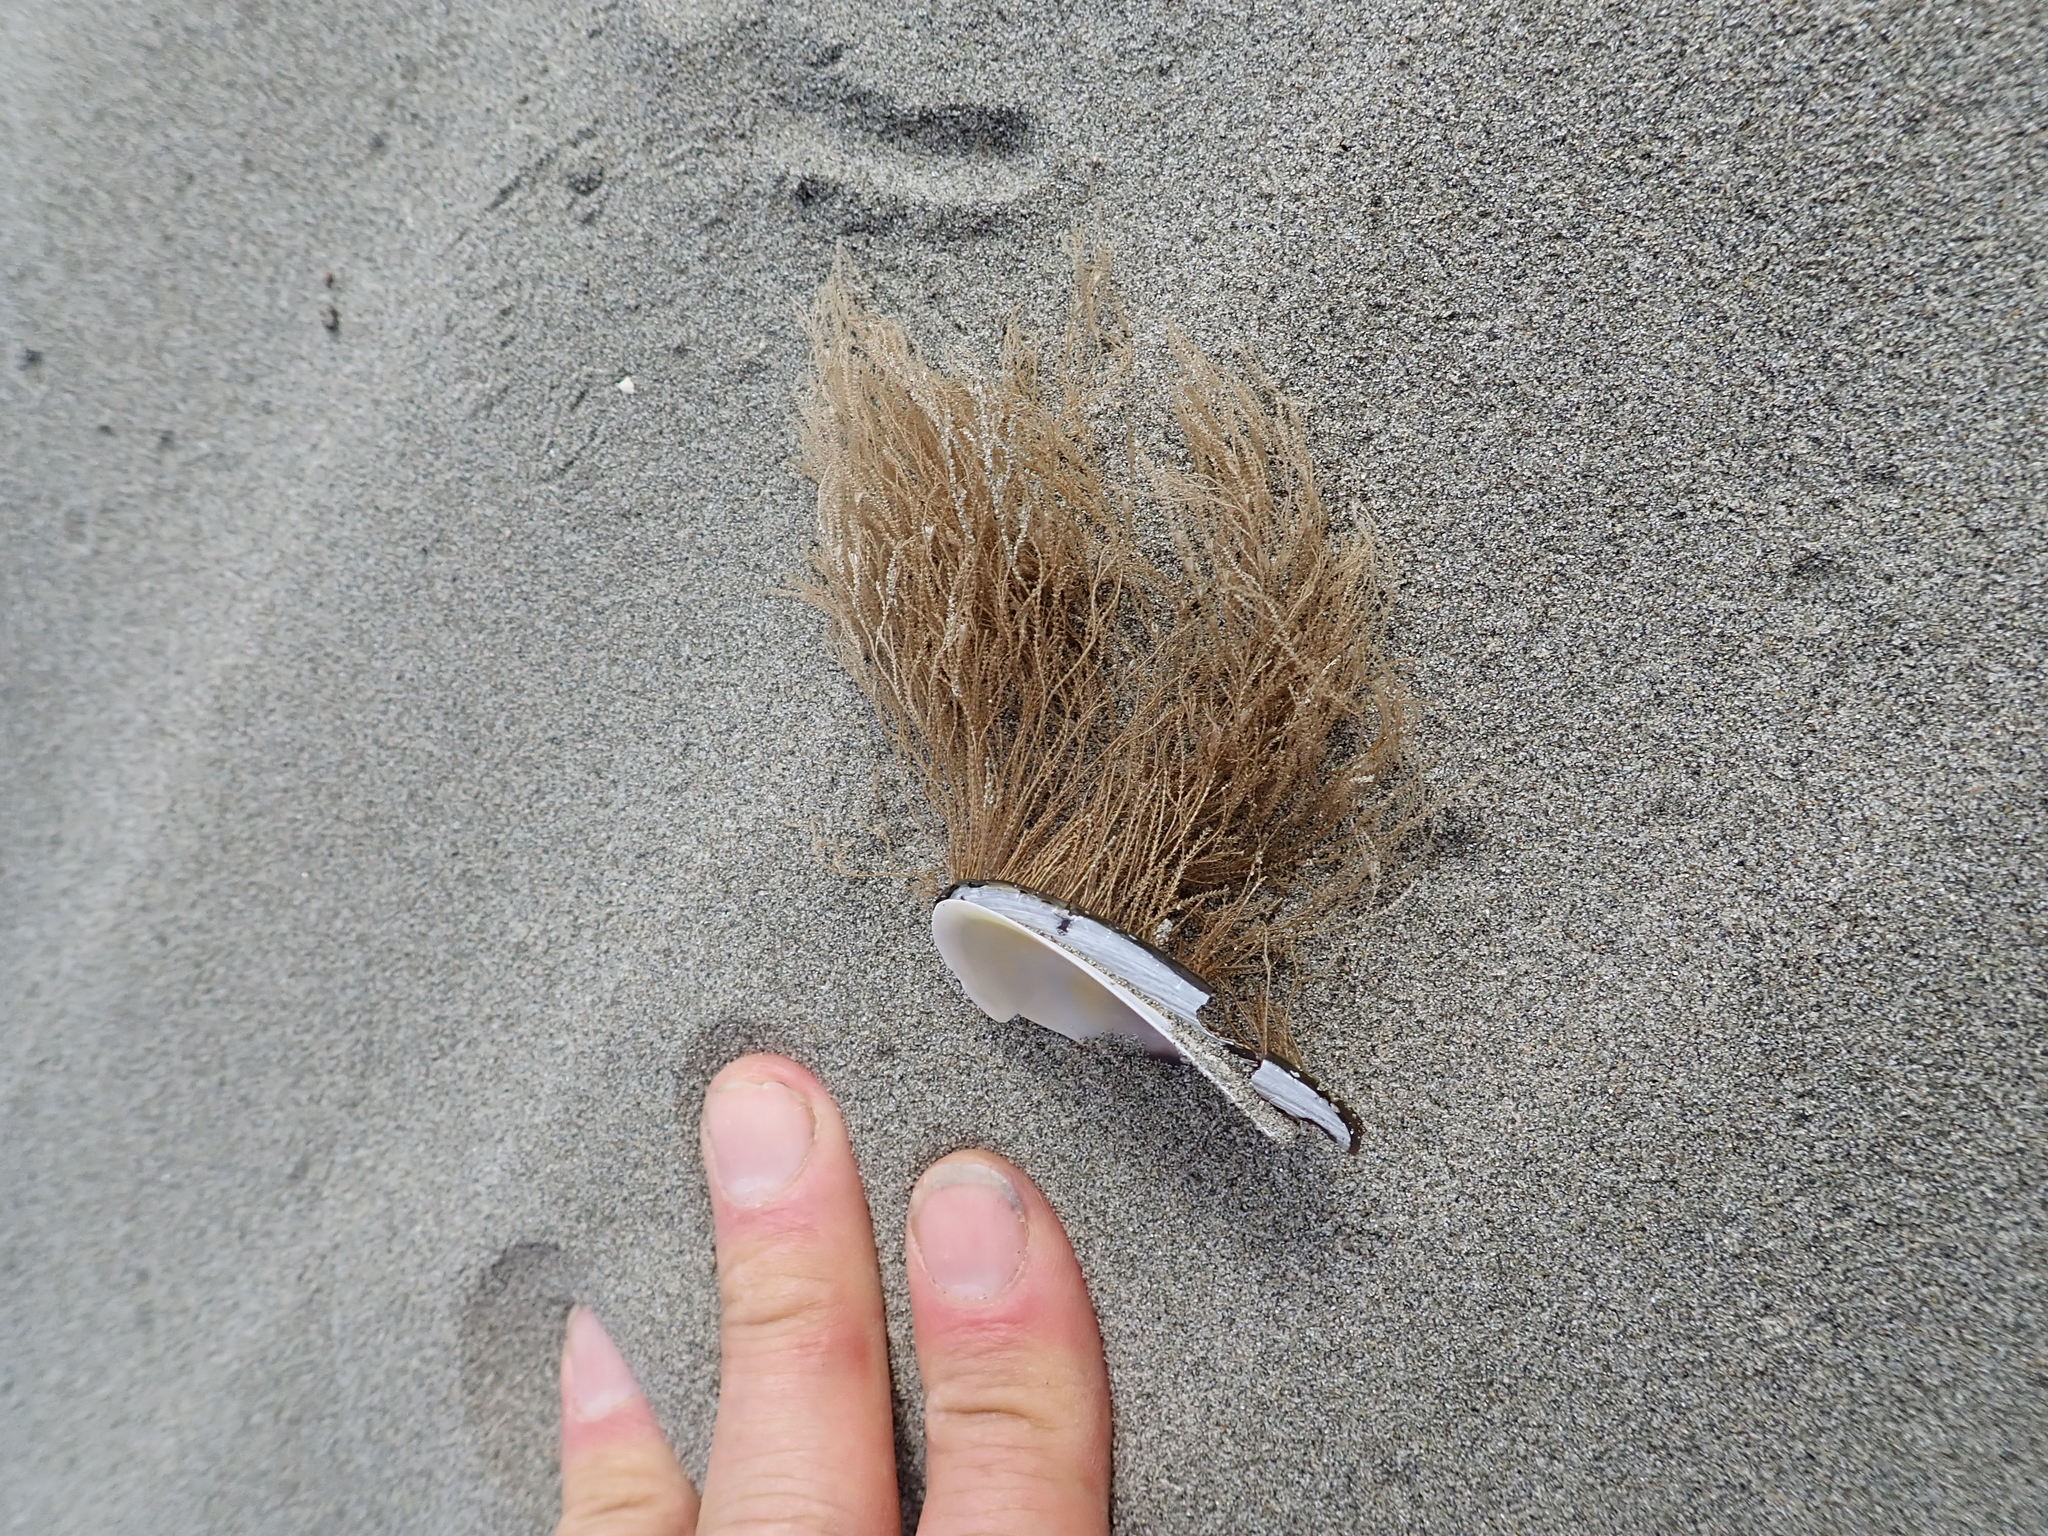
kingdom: Animalia
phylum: Cnidaria
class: Hydrozoa
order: Leptothecata
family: Sertulariidae
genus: Amphisbetia
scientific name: Amphisbetia bispinosa
